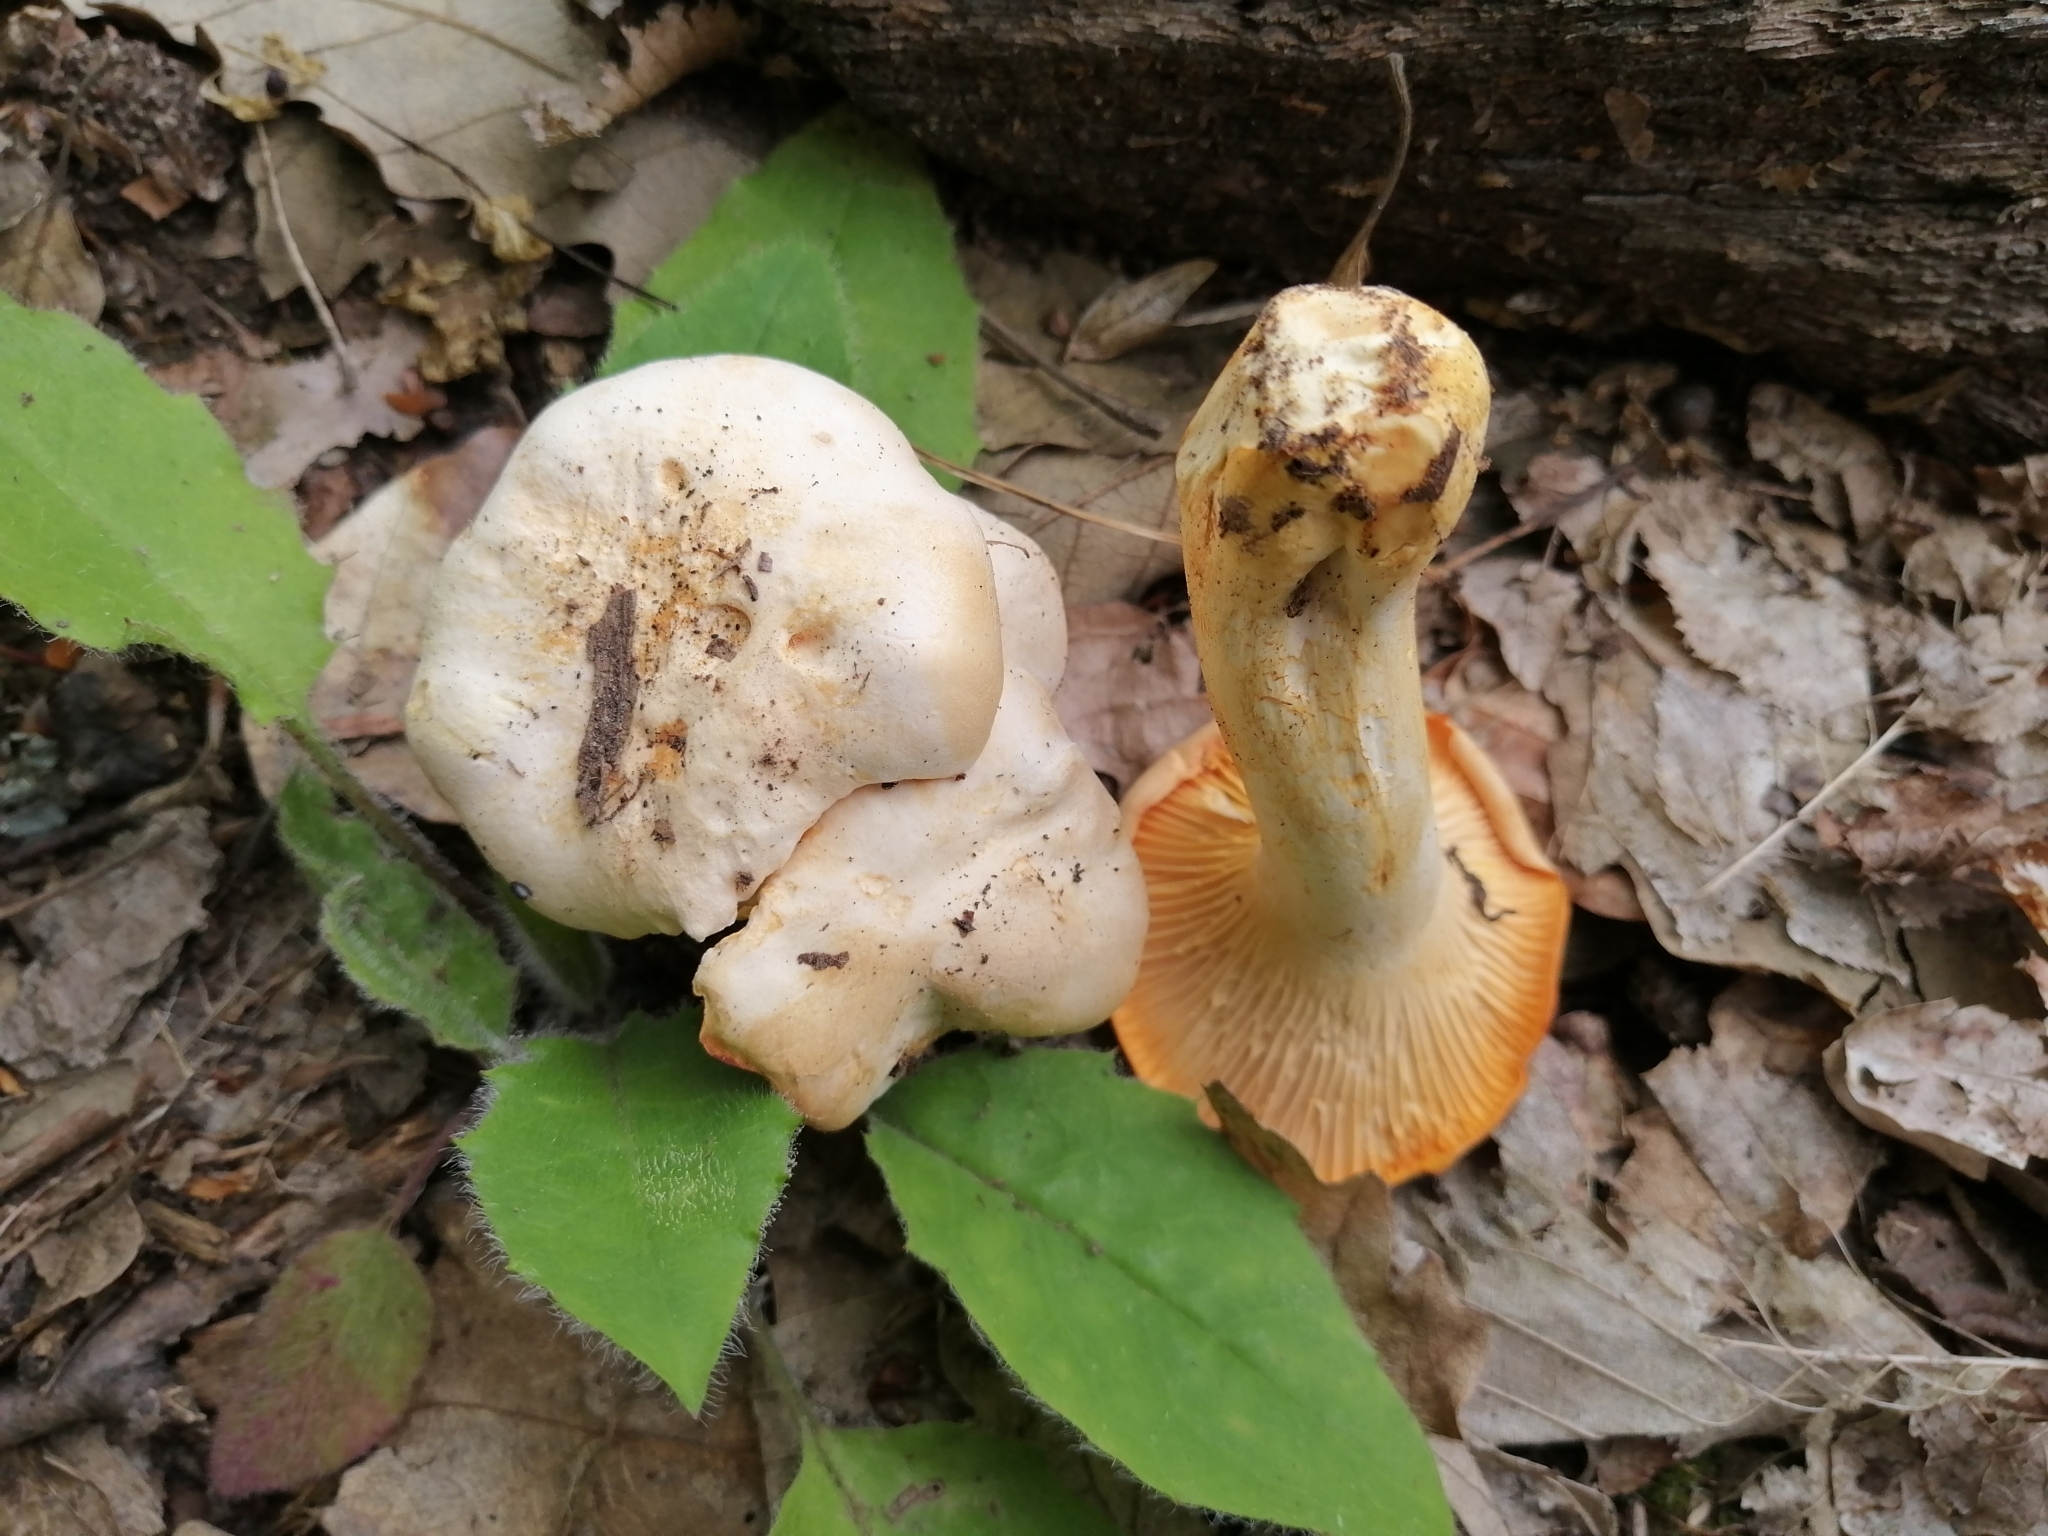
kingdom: Fungi
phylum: Basidiomycota
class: Agaricomycetes
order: Cantharellales
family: Hydnaceae
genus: Cantharellus
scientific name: Cantharellus pallens
